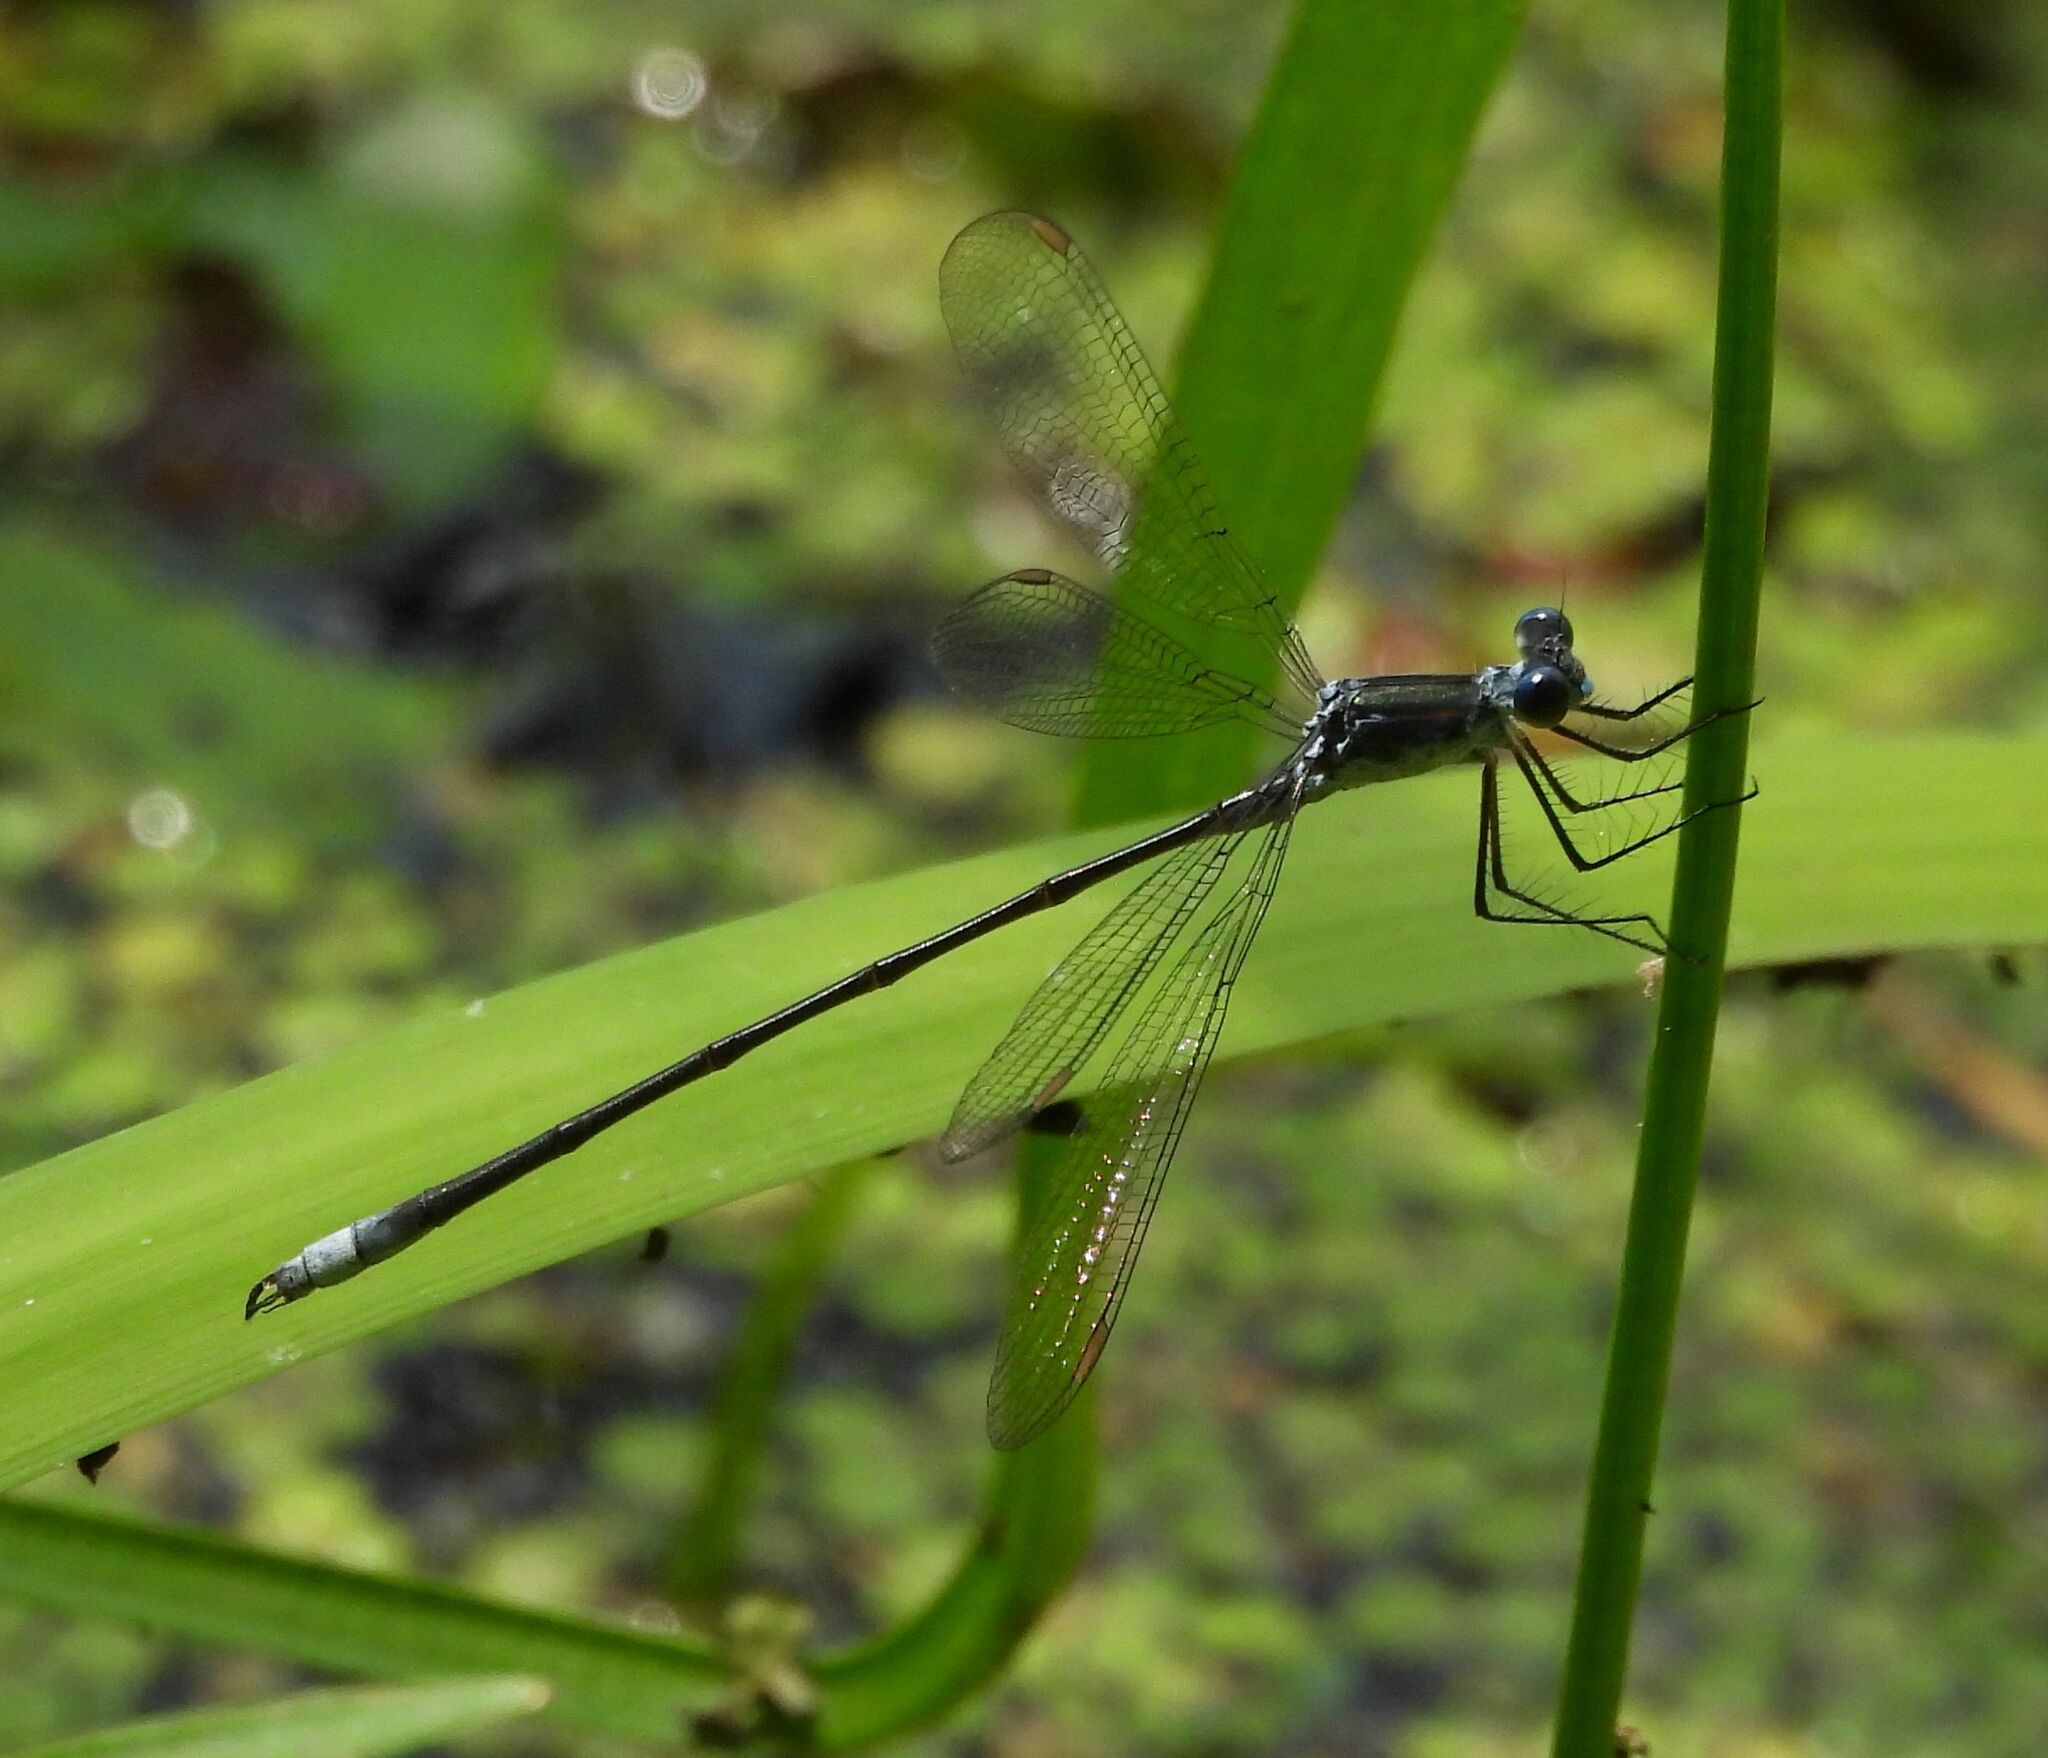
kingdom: Animalia
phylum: Arthropoda
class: Insecta
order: Odonata
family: Lestidae
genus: Lestes
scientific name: Lestes vigilax
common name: Swamp spreadwing
